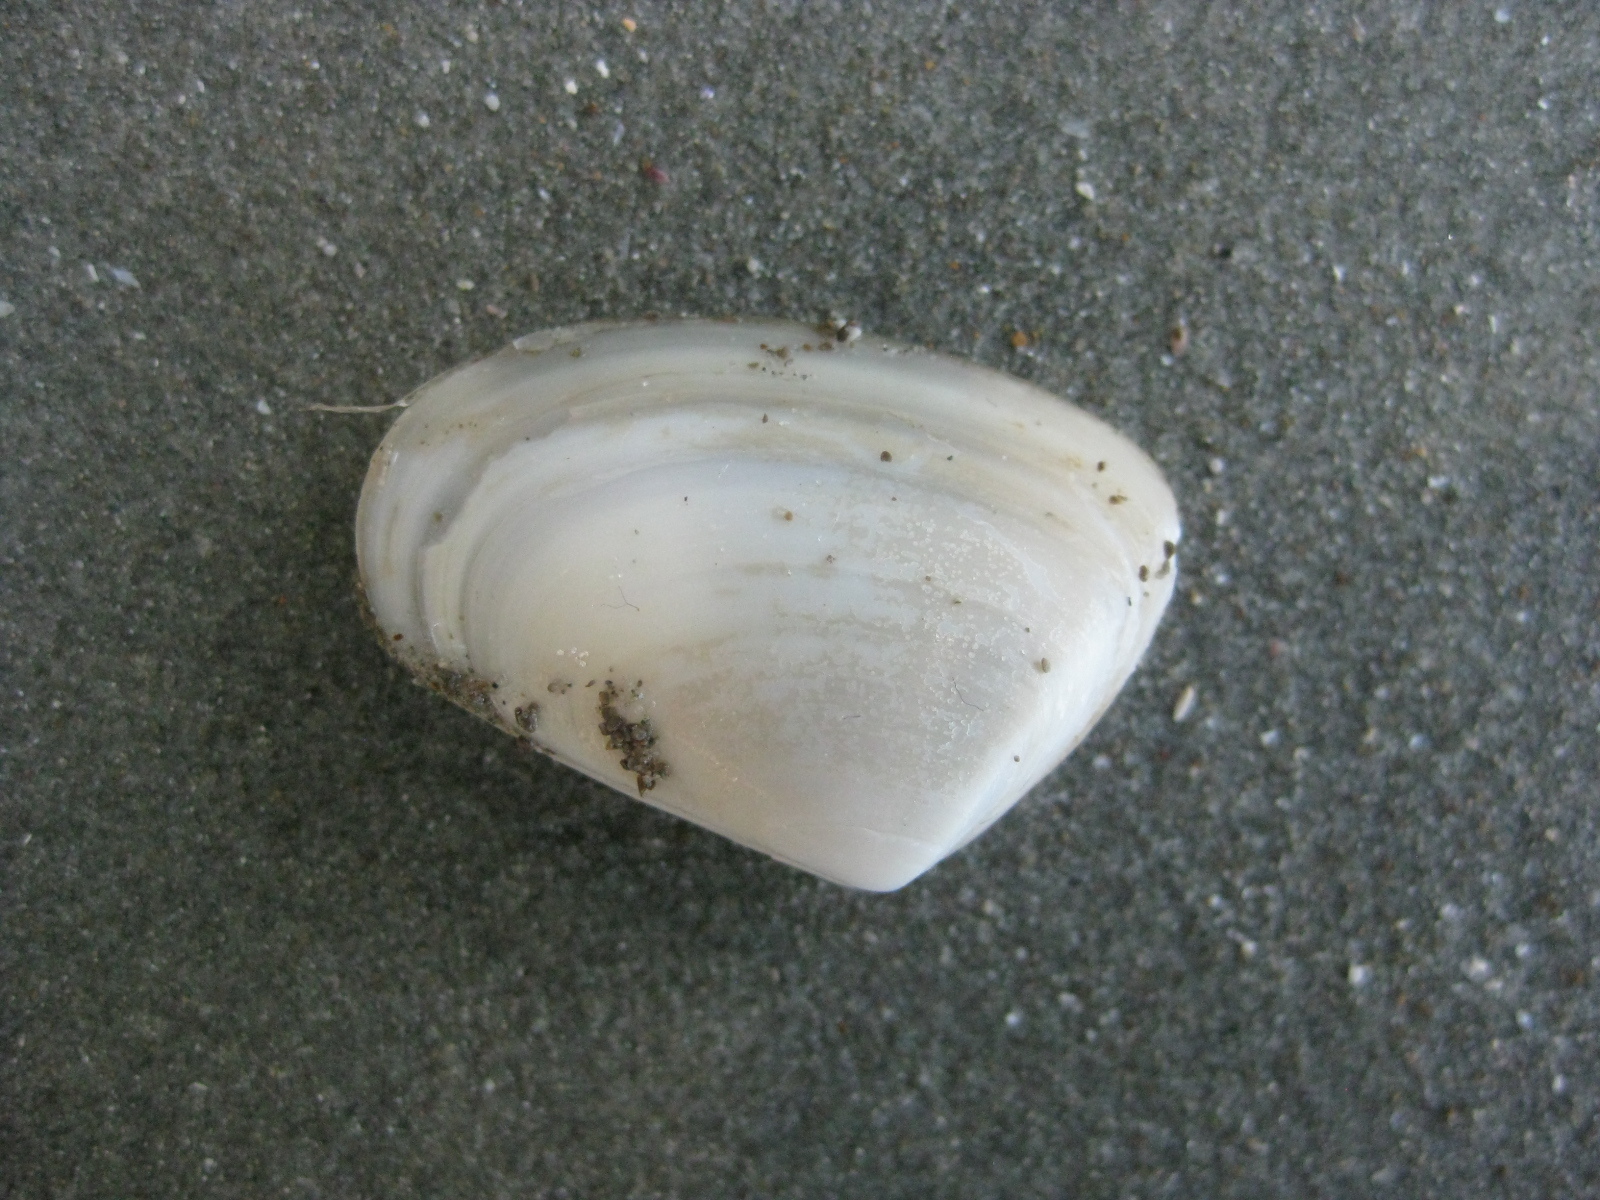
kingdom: Animalia
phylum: Mollusca
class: Bivalvia
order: Venerida
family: Mesodesmatidae
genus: Paphies
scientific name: Paphies subtriangulata
